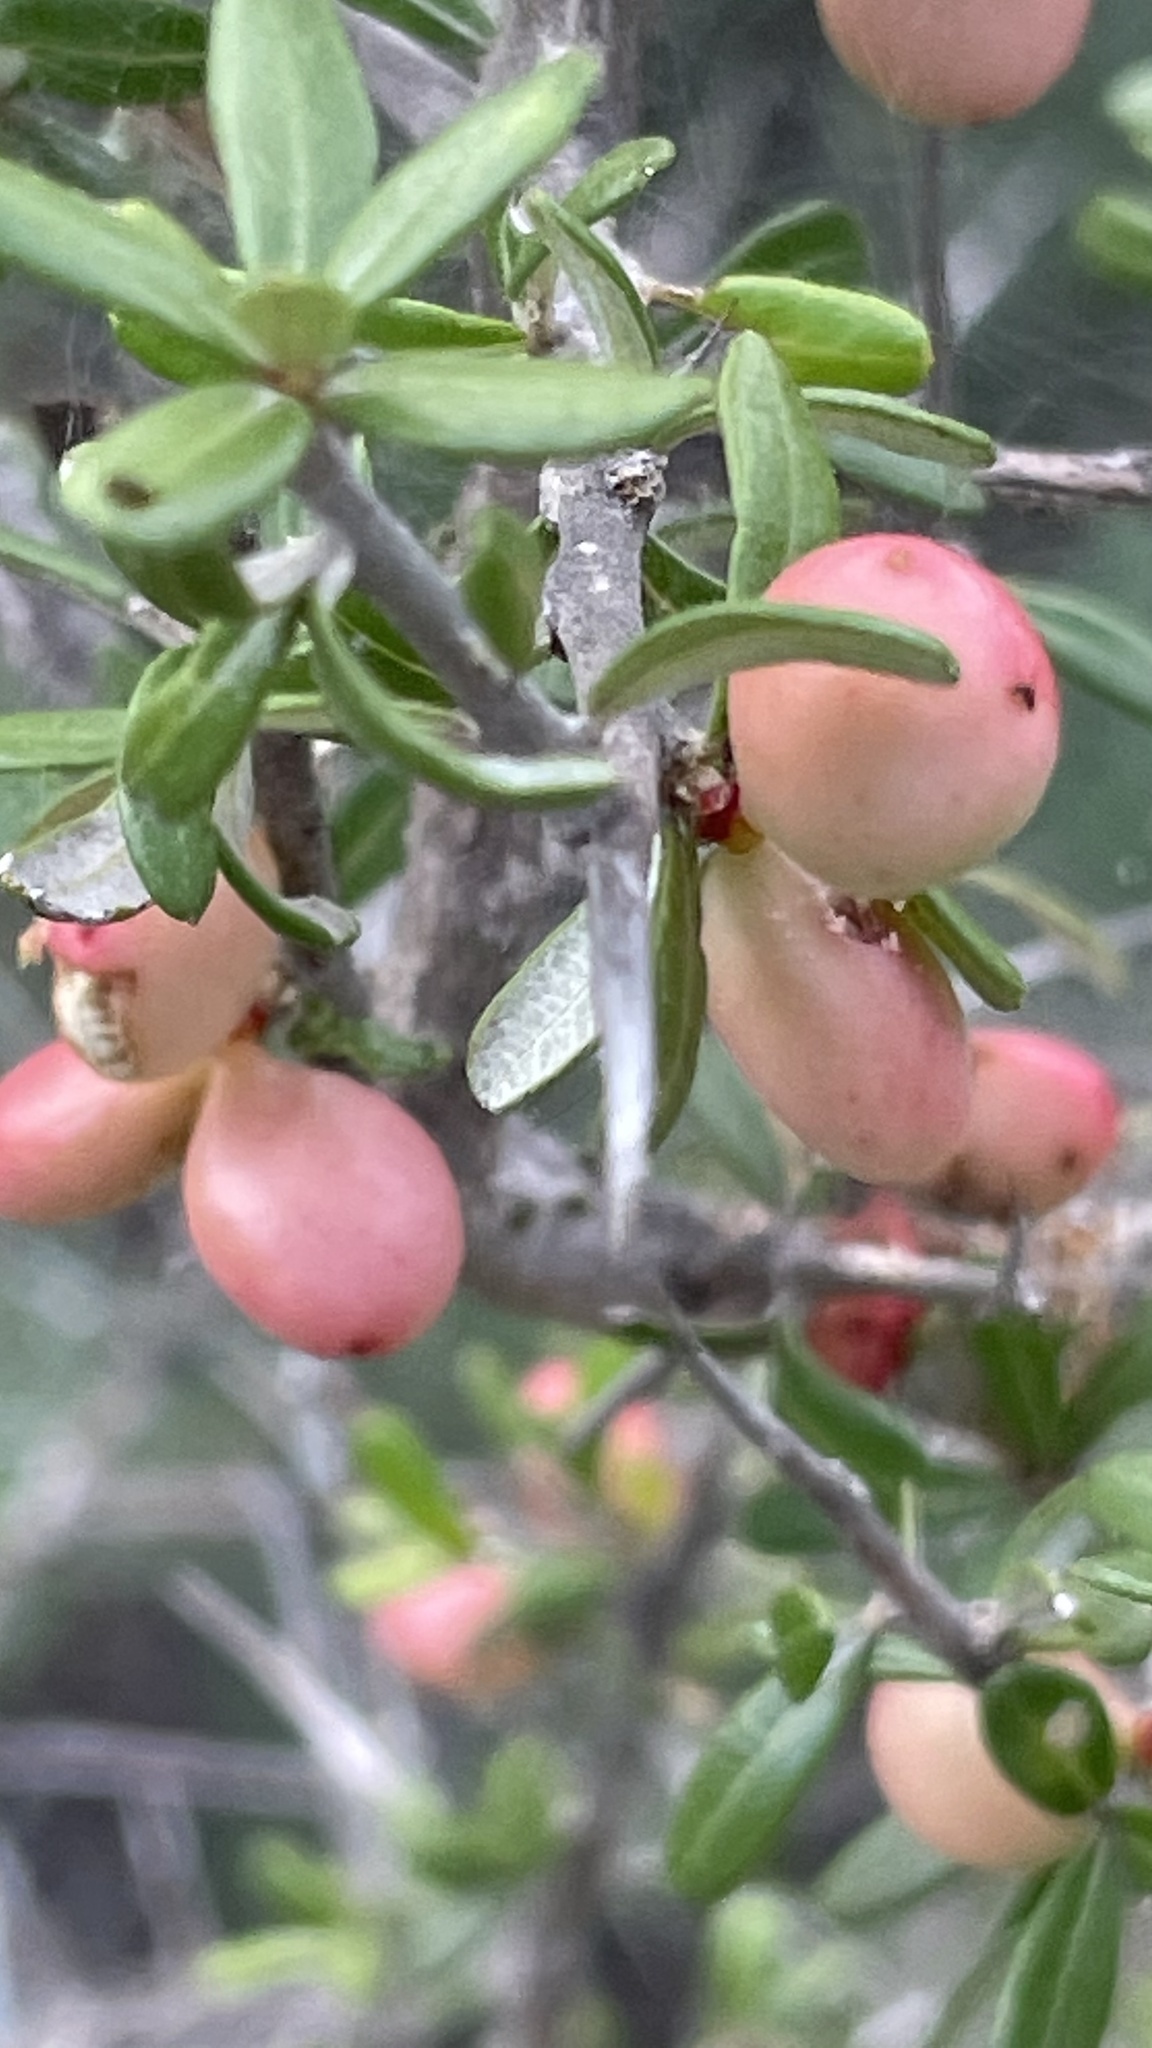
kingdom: Plantae
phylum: Tracheophyta
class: Magnoliopsida
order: Sapindales
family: Simaroubaceae
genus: Castela
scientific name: Castela erecta
